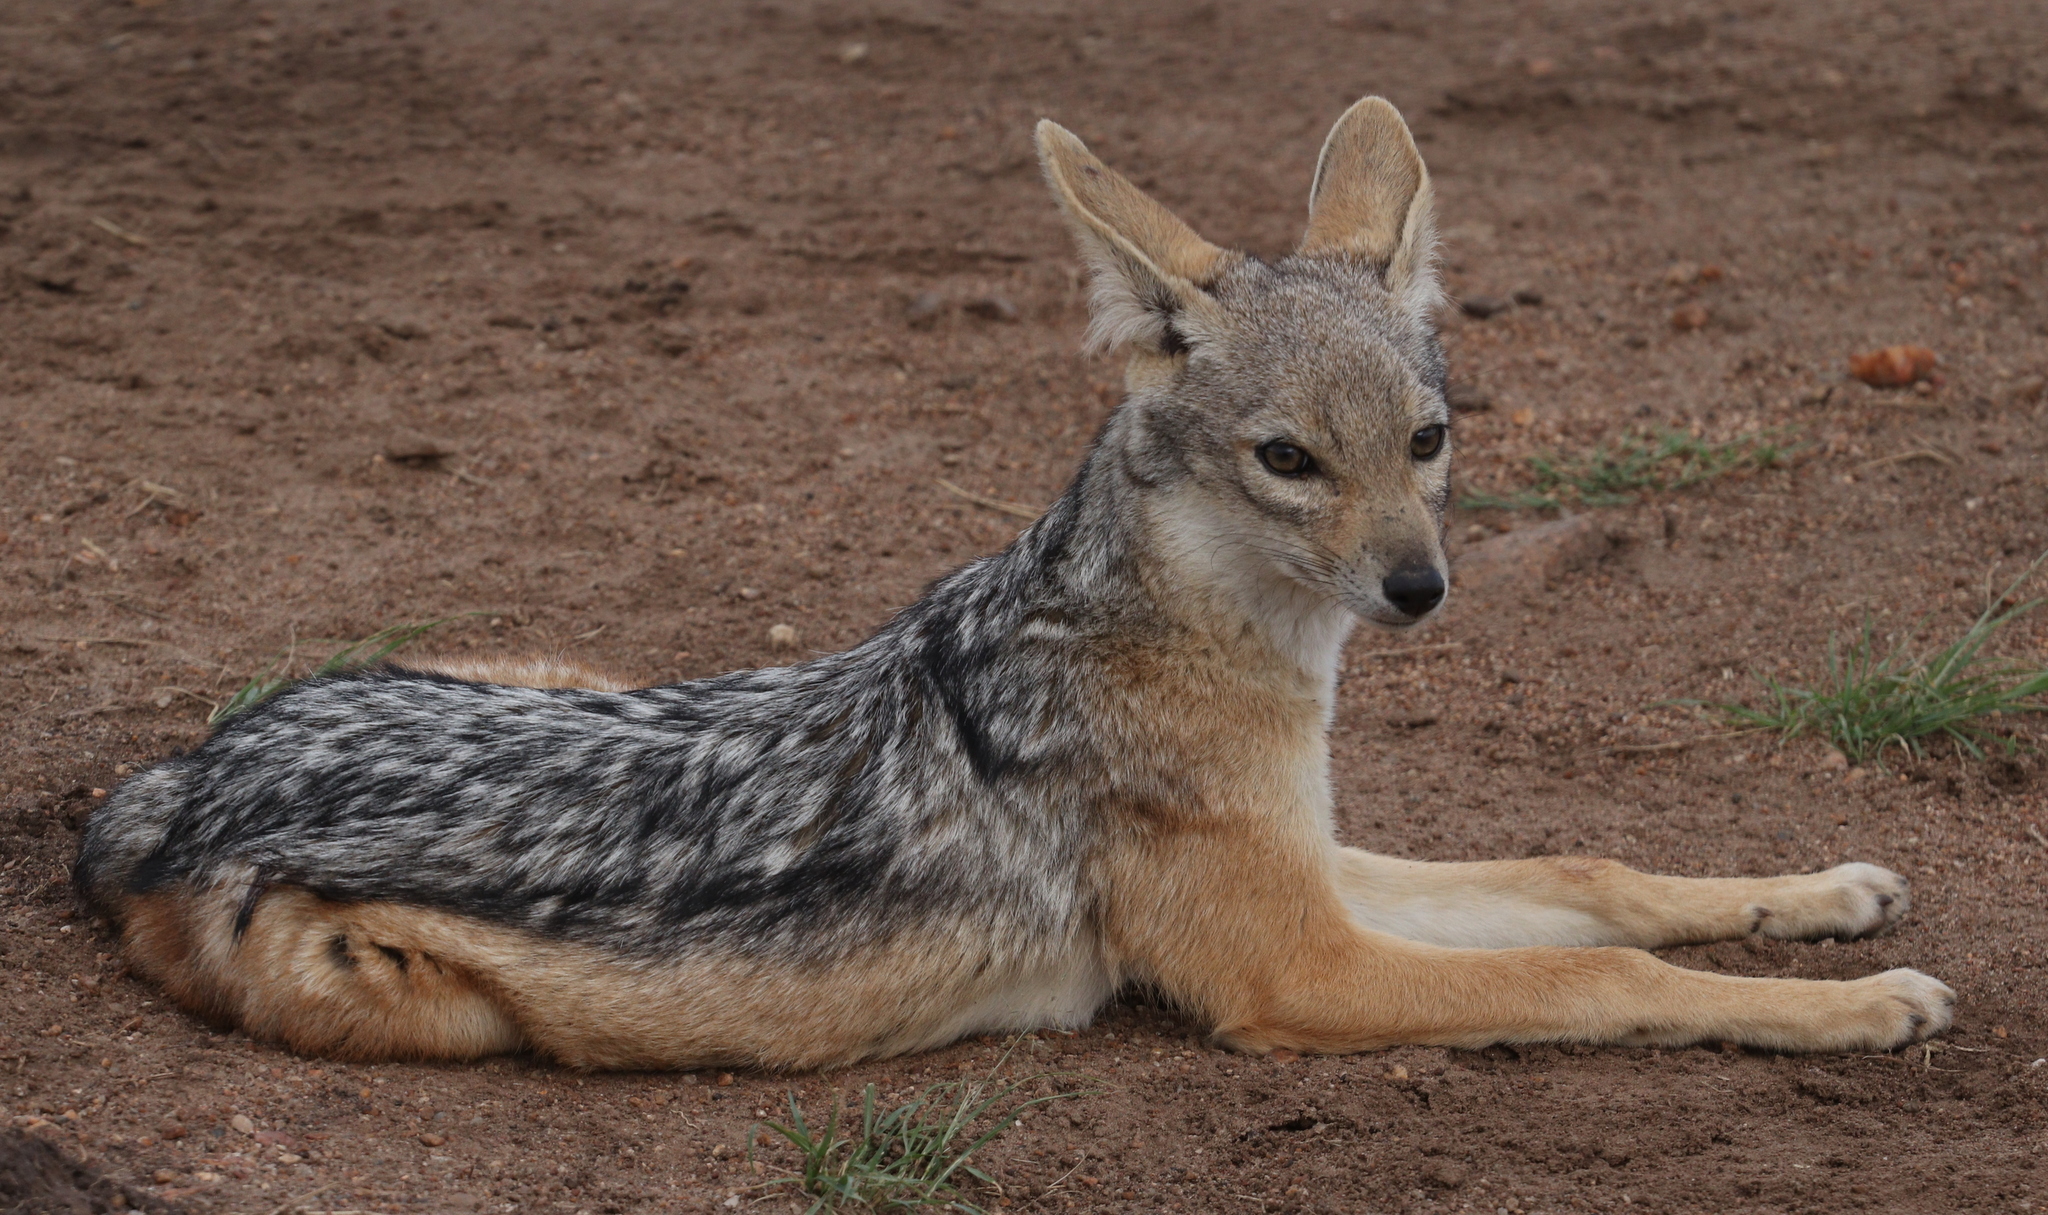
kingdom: Animalia
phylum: Chordata
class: Mammalia
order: Carnivora
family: Canidae
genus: Lupulella
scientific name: Lupulella
